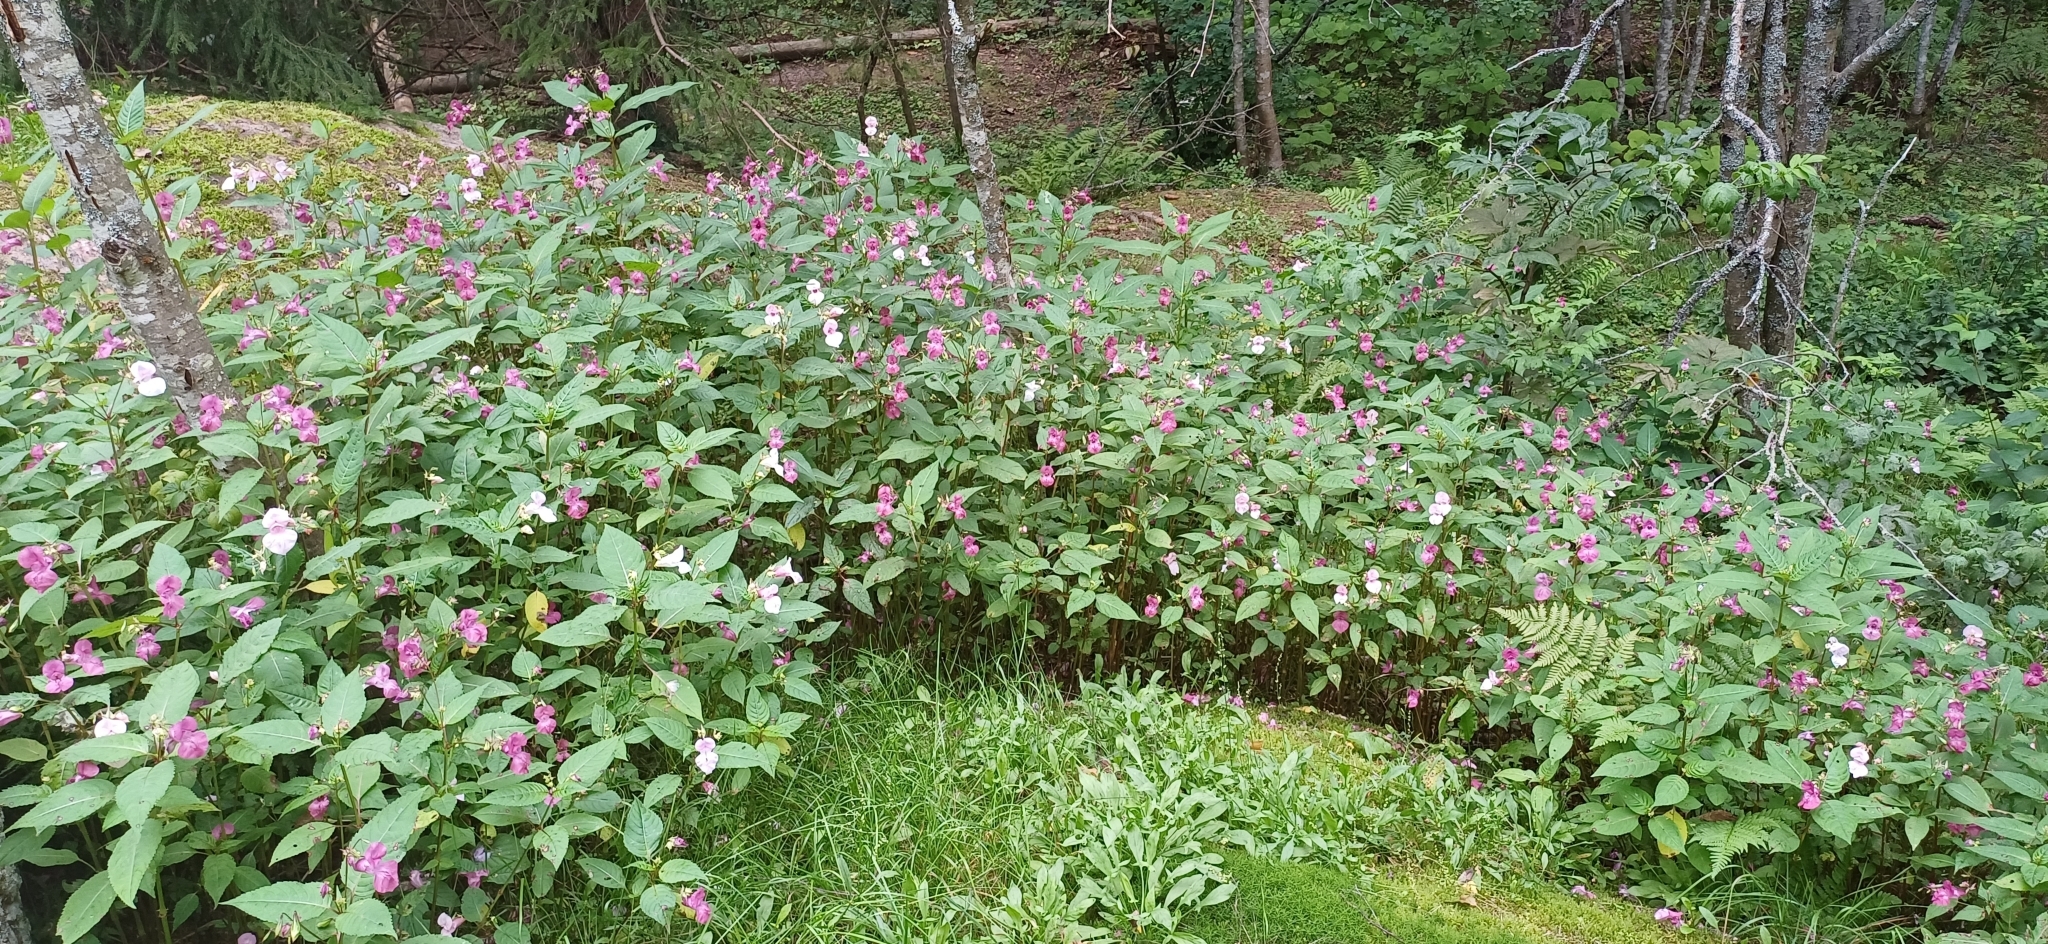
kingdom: Plantae
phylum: Tracheophyta
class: Magnoliopsida
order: Ericales
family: Balsaminaceae
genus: Impatiens
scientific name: Impatiens glandulifera
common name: Himalayan balsam
